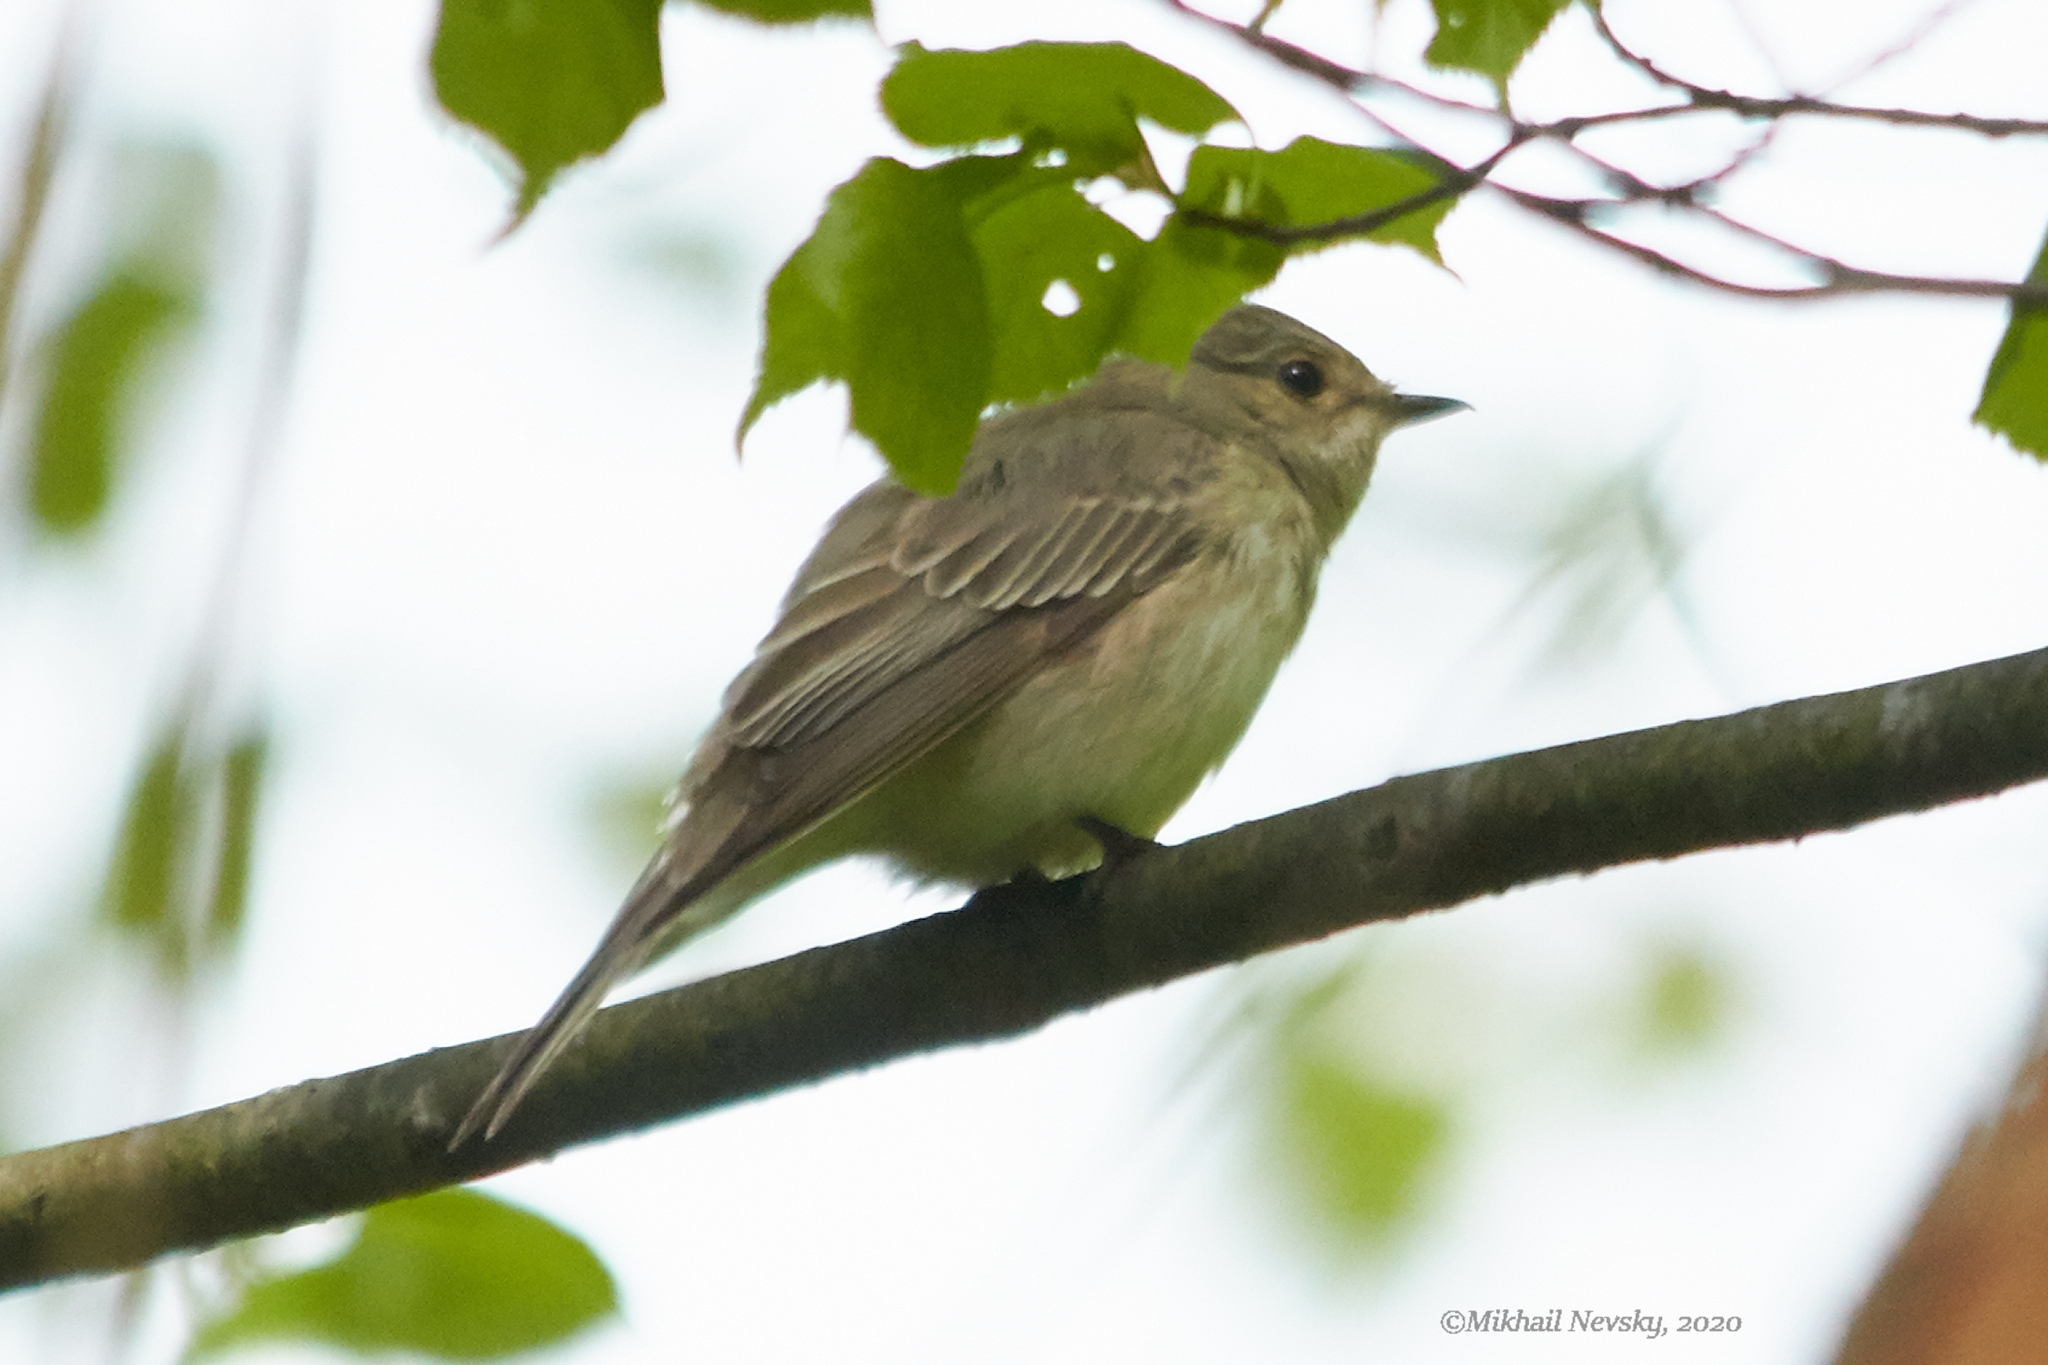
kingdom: Animalia
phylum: Chordata
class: Aves
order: Passeriformes
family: Muscicapidae
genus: Muscicapa
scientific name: Muscicapa striata
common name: Spotted flycatcher
